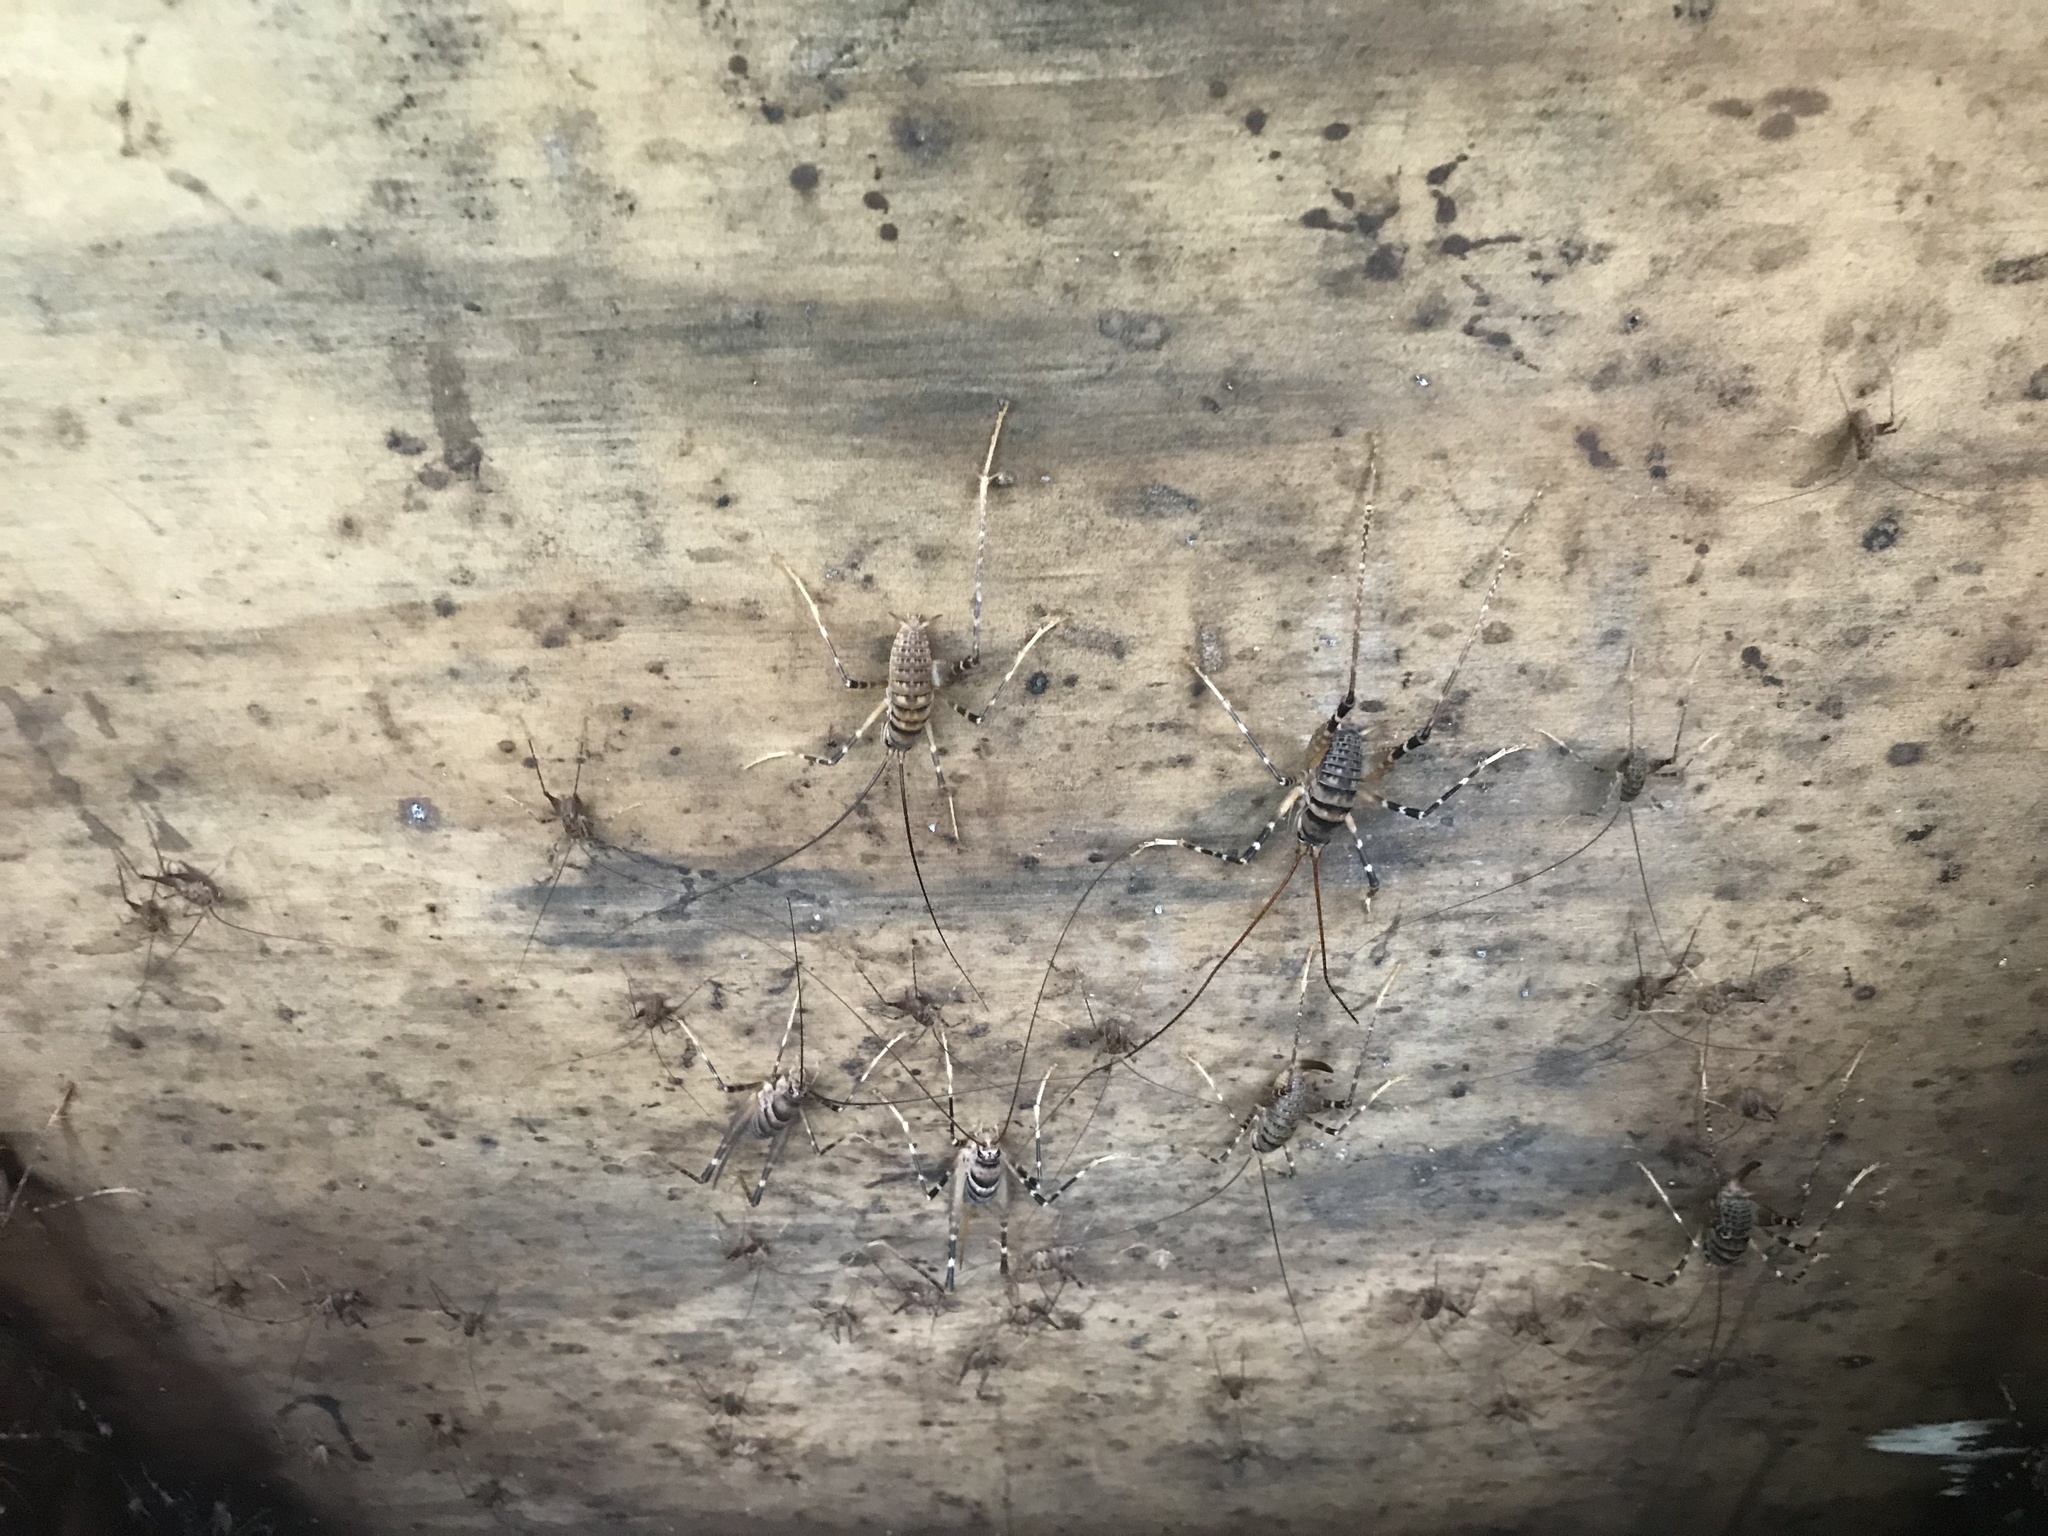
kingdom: Animalia
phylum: Arthropoda
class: Insecta
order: Orthoptera
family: Rhaphidophoridae
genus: Pachyrhamma
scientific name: Pachyrhamma edwardsii
